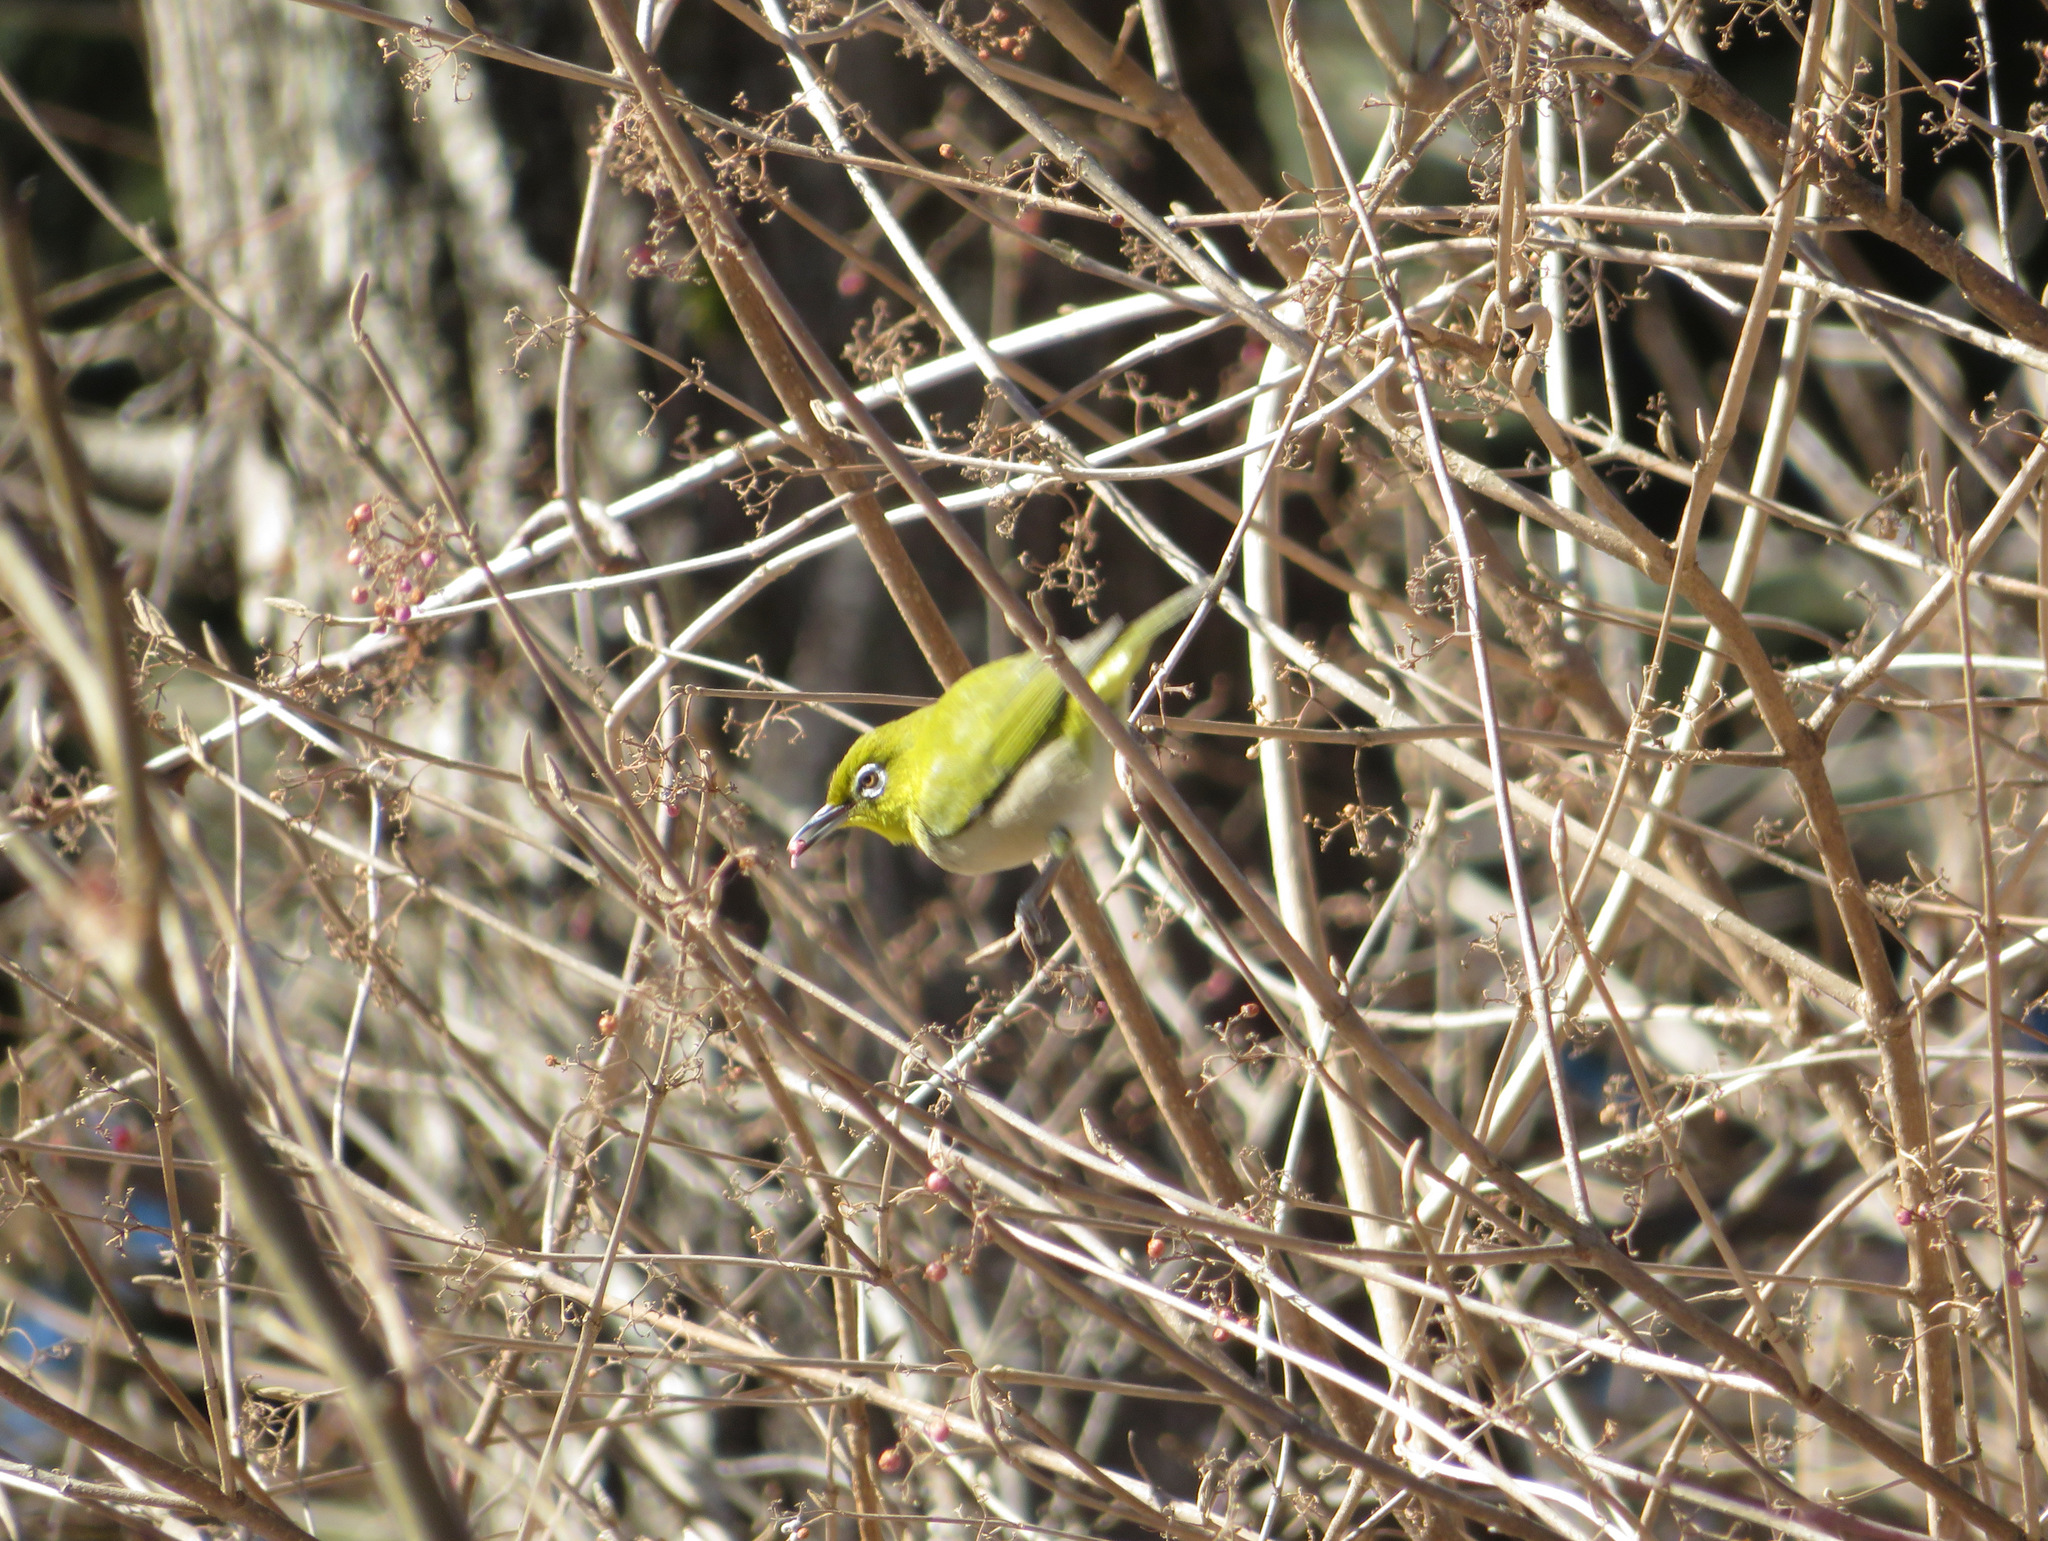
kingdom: Animalia
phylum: Chordata
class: Aves
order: Passeriformes
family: Zosteropidae
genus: Zosterops
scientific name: Zosterops japonicus
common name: Japanese white-eye
